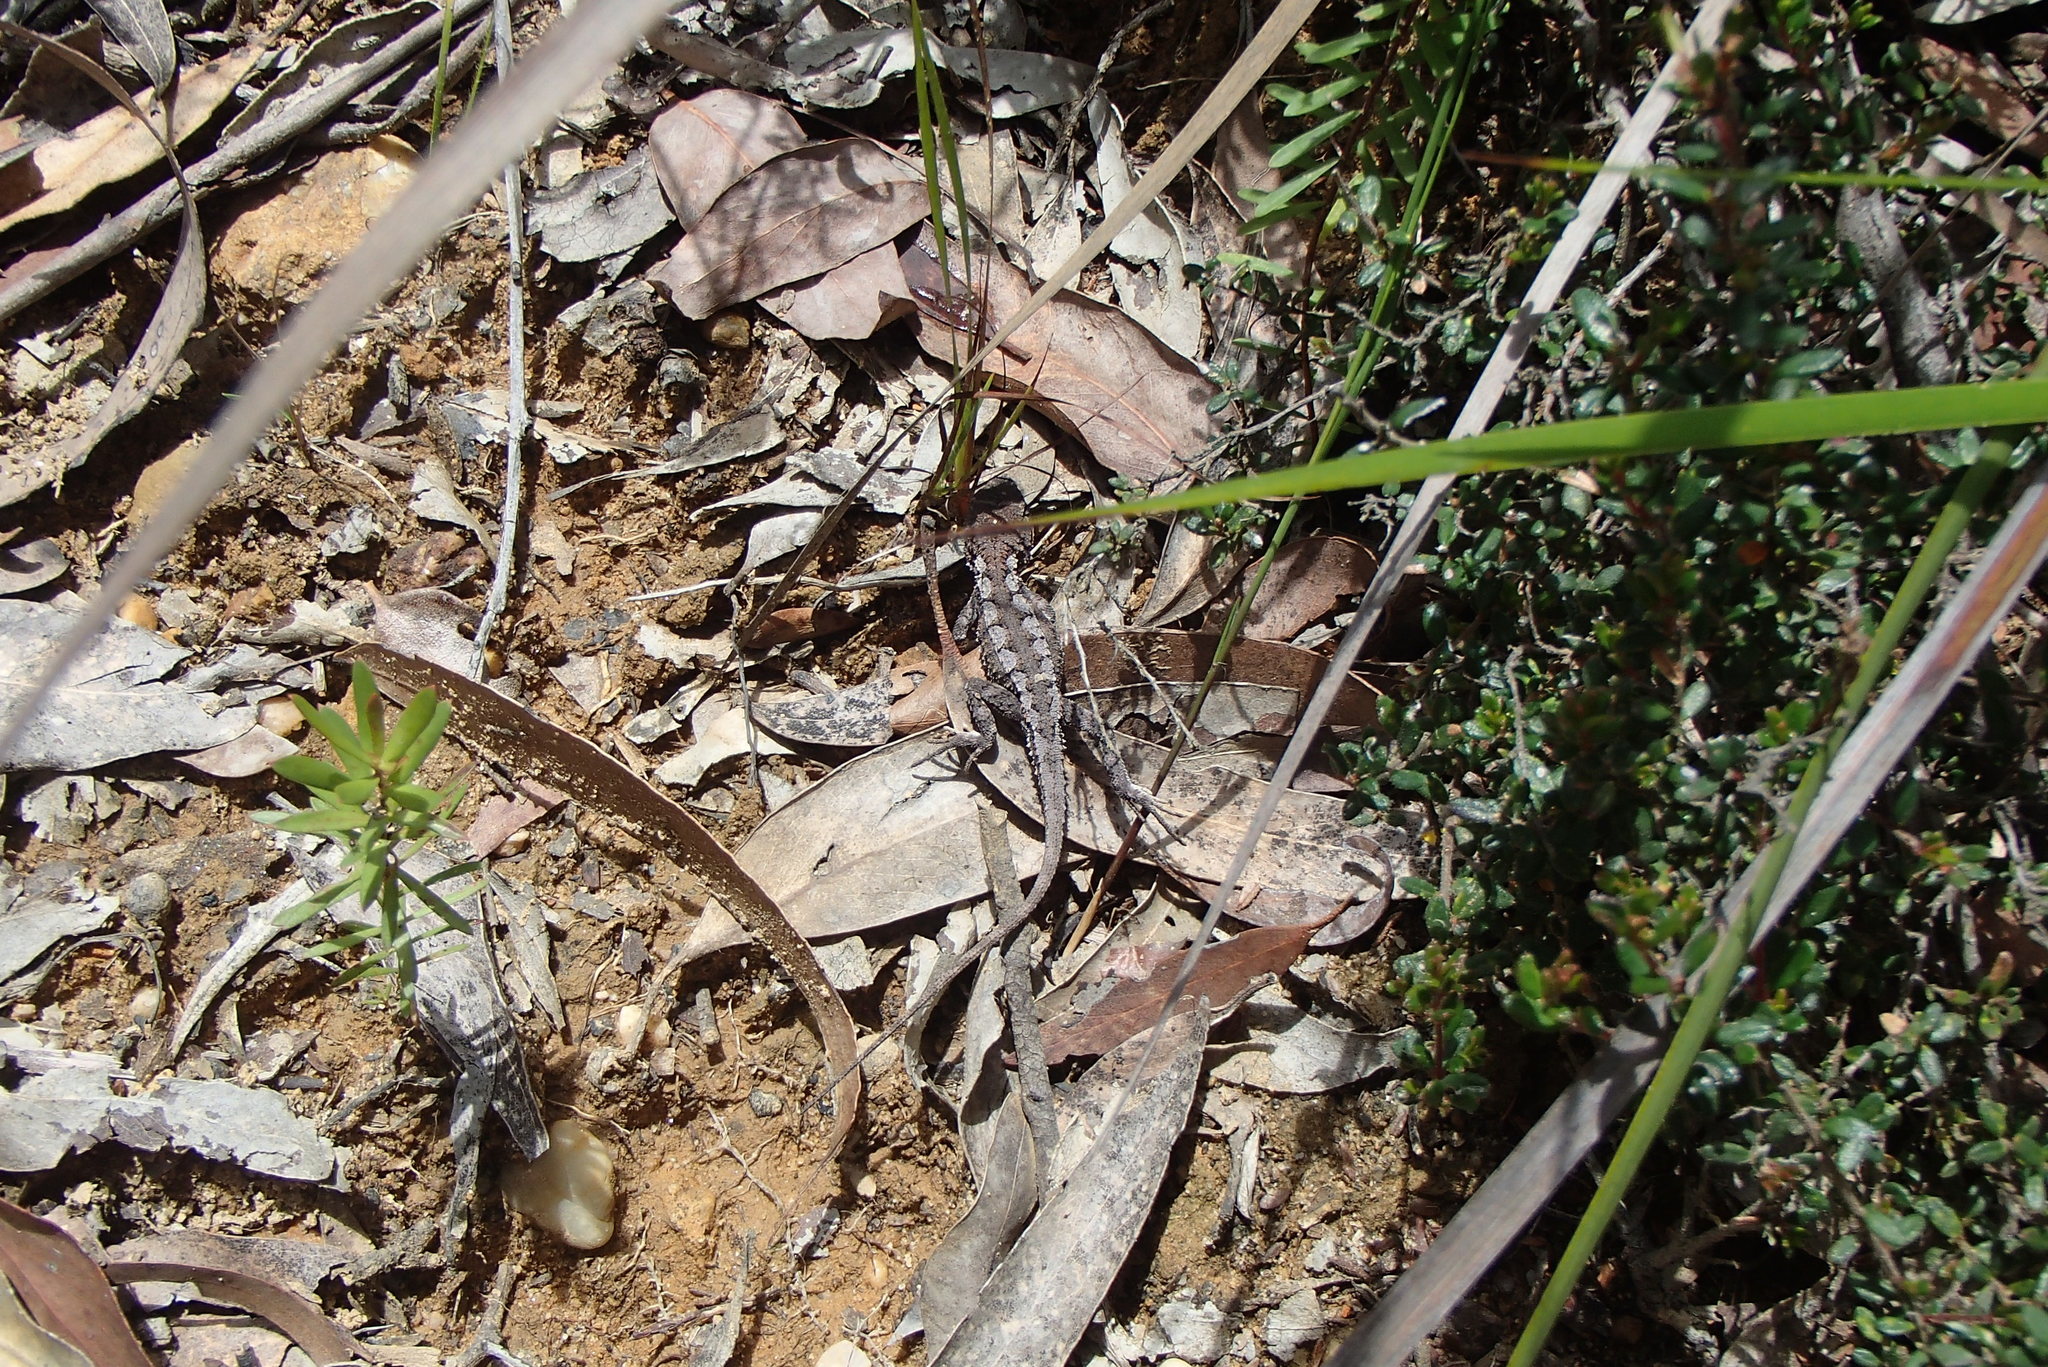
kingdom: Animalia
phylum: Chordata
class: Squamata
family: Agamidae
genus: Rankinia
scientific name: Rankinia diemensis
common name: Mountain dragon
